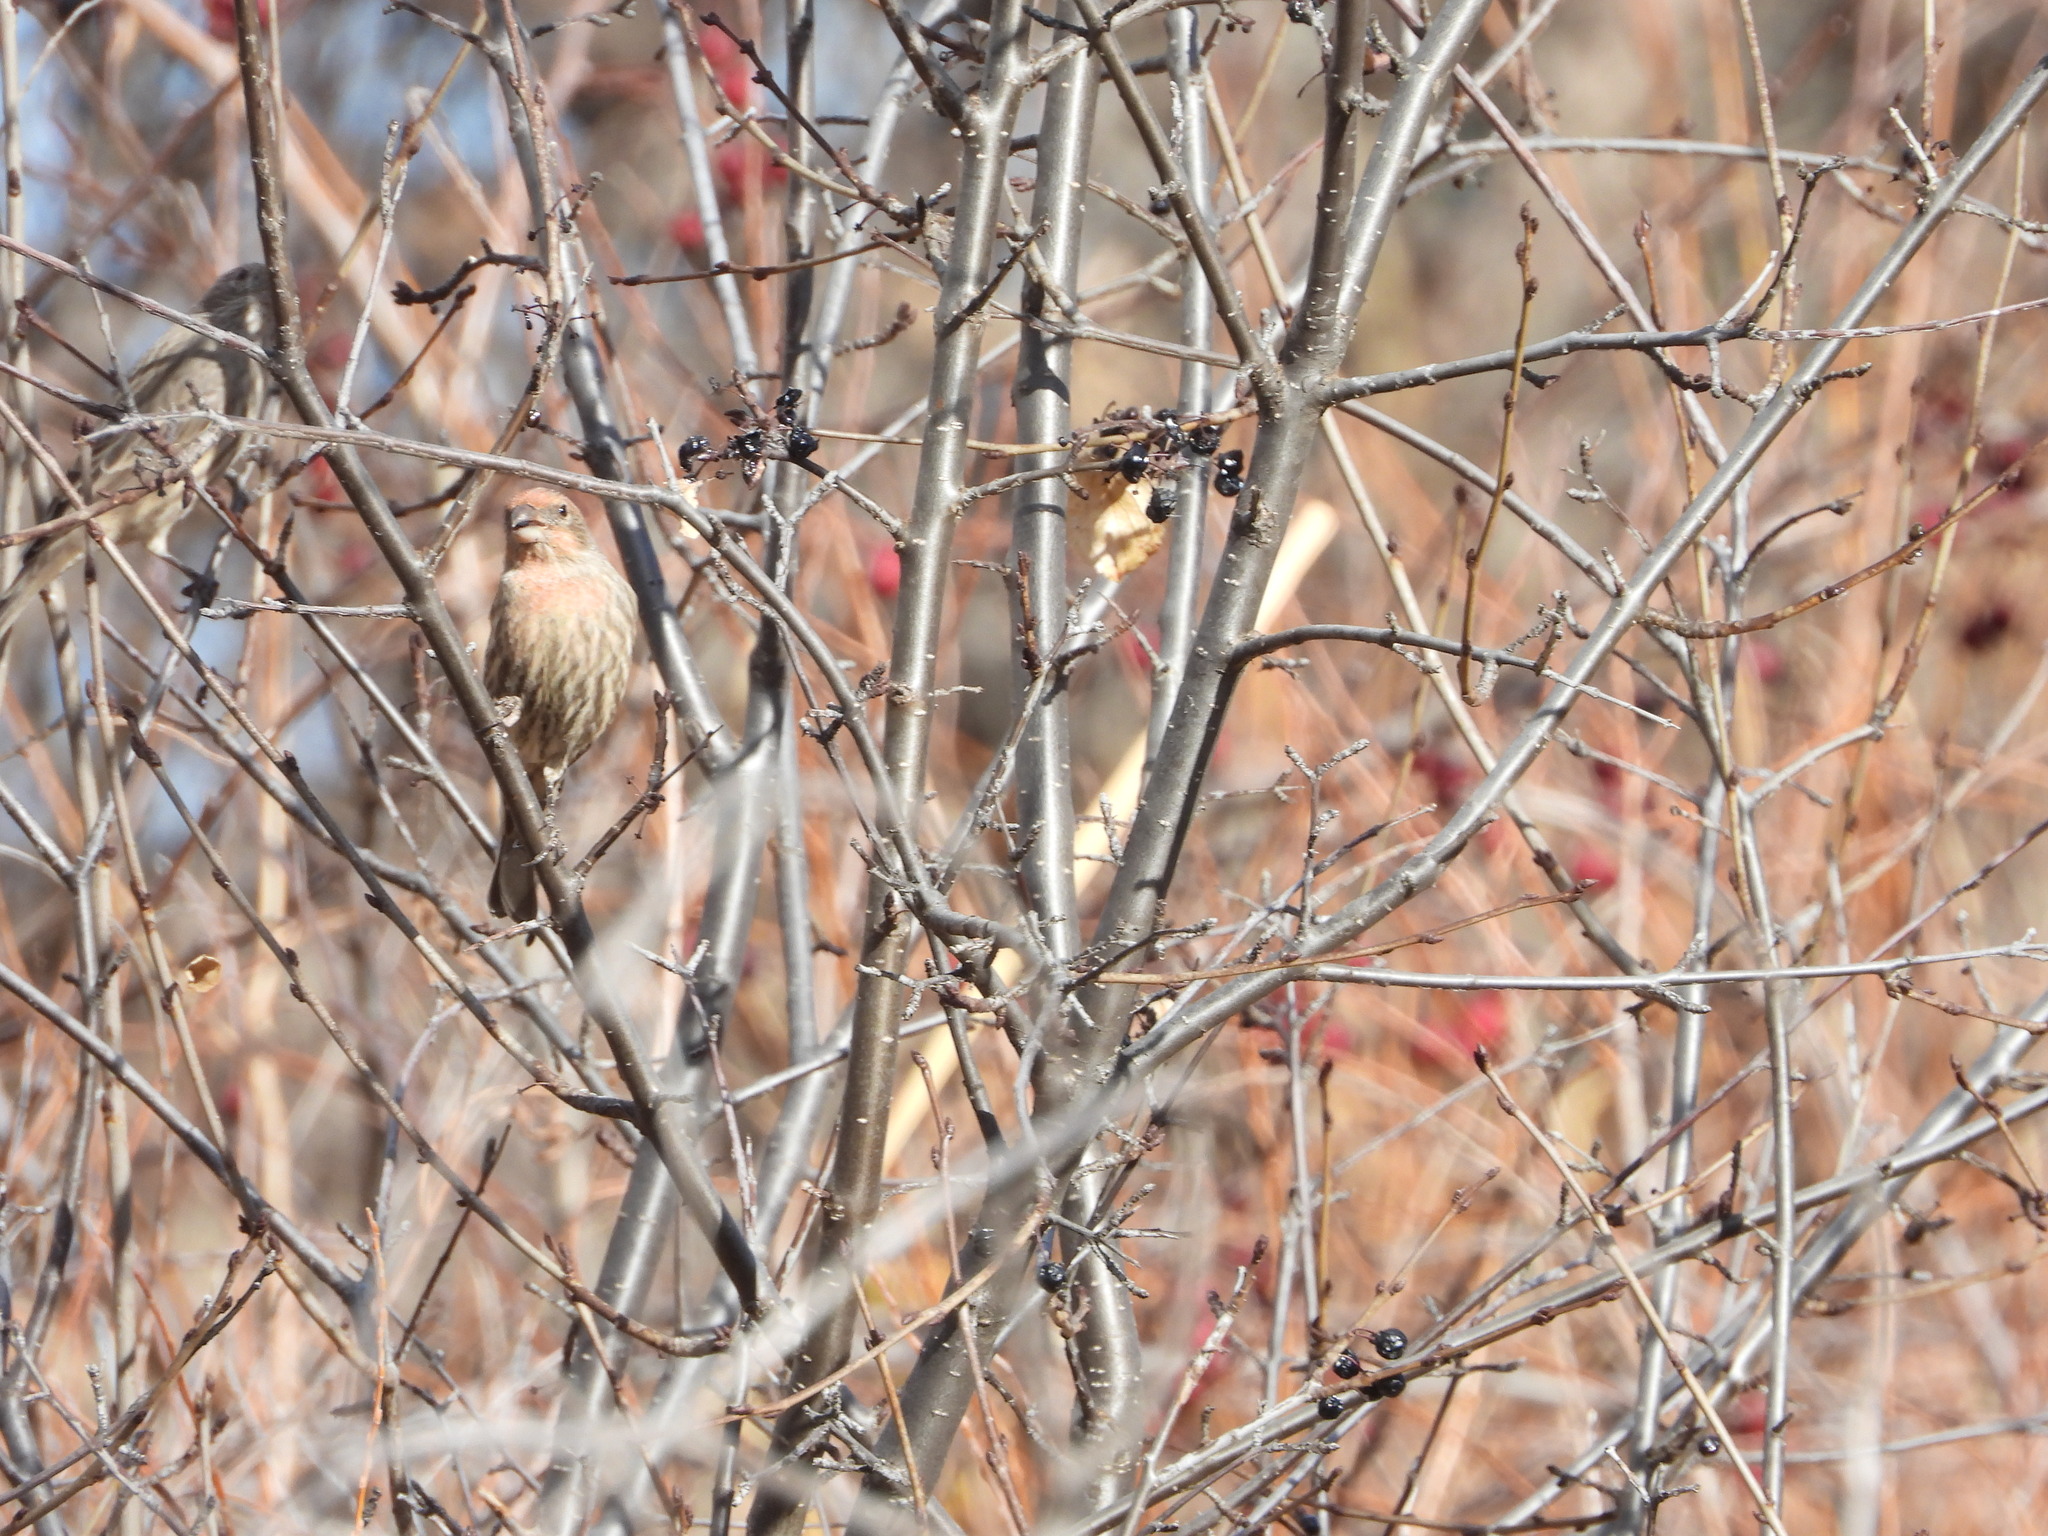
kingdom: Animalia
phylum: Chordata
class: Aves
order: Passeriformes
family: Fringillidae
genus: Haemorhous
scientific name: Haemorhous mexicanus
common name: House finch
